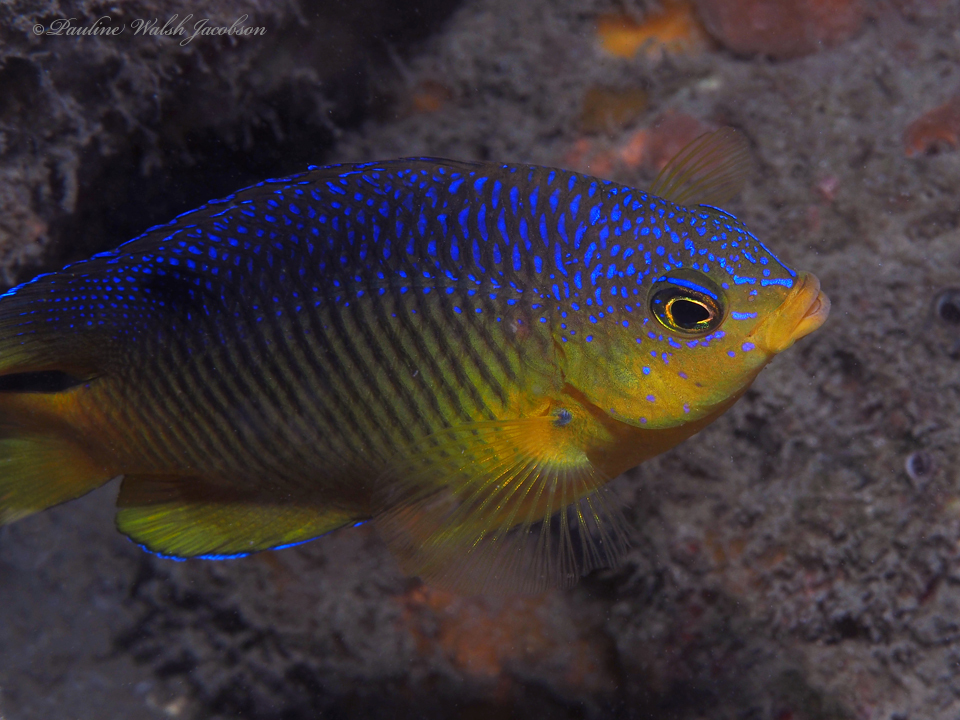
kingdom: Animalia
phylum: Chordata
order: Perciformes
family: Pomacentridae
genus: Stegastes
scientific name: Stegastes xanthurus
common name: Cocoa damselfish
